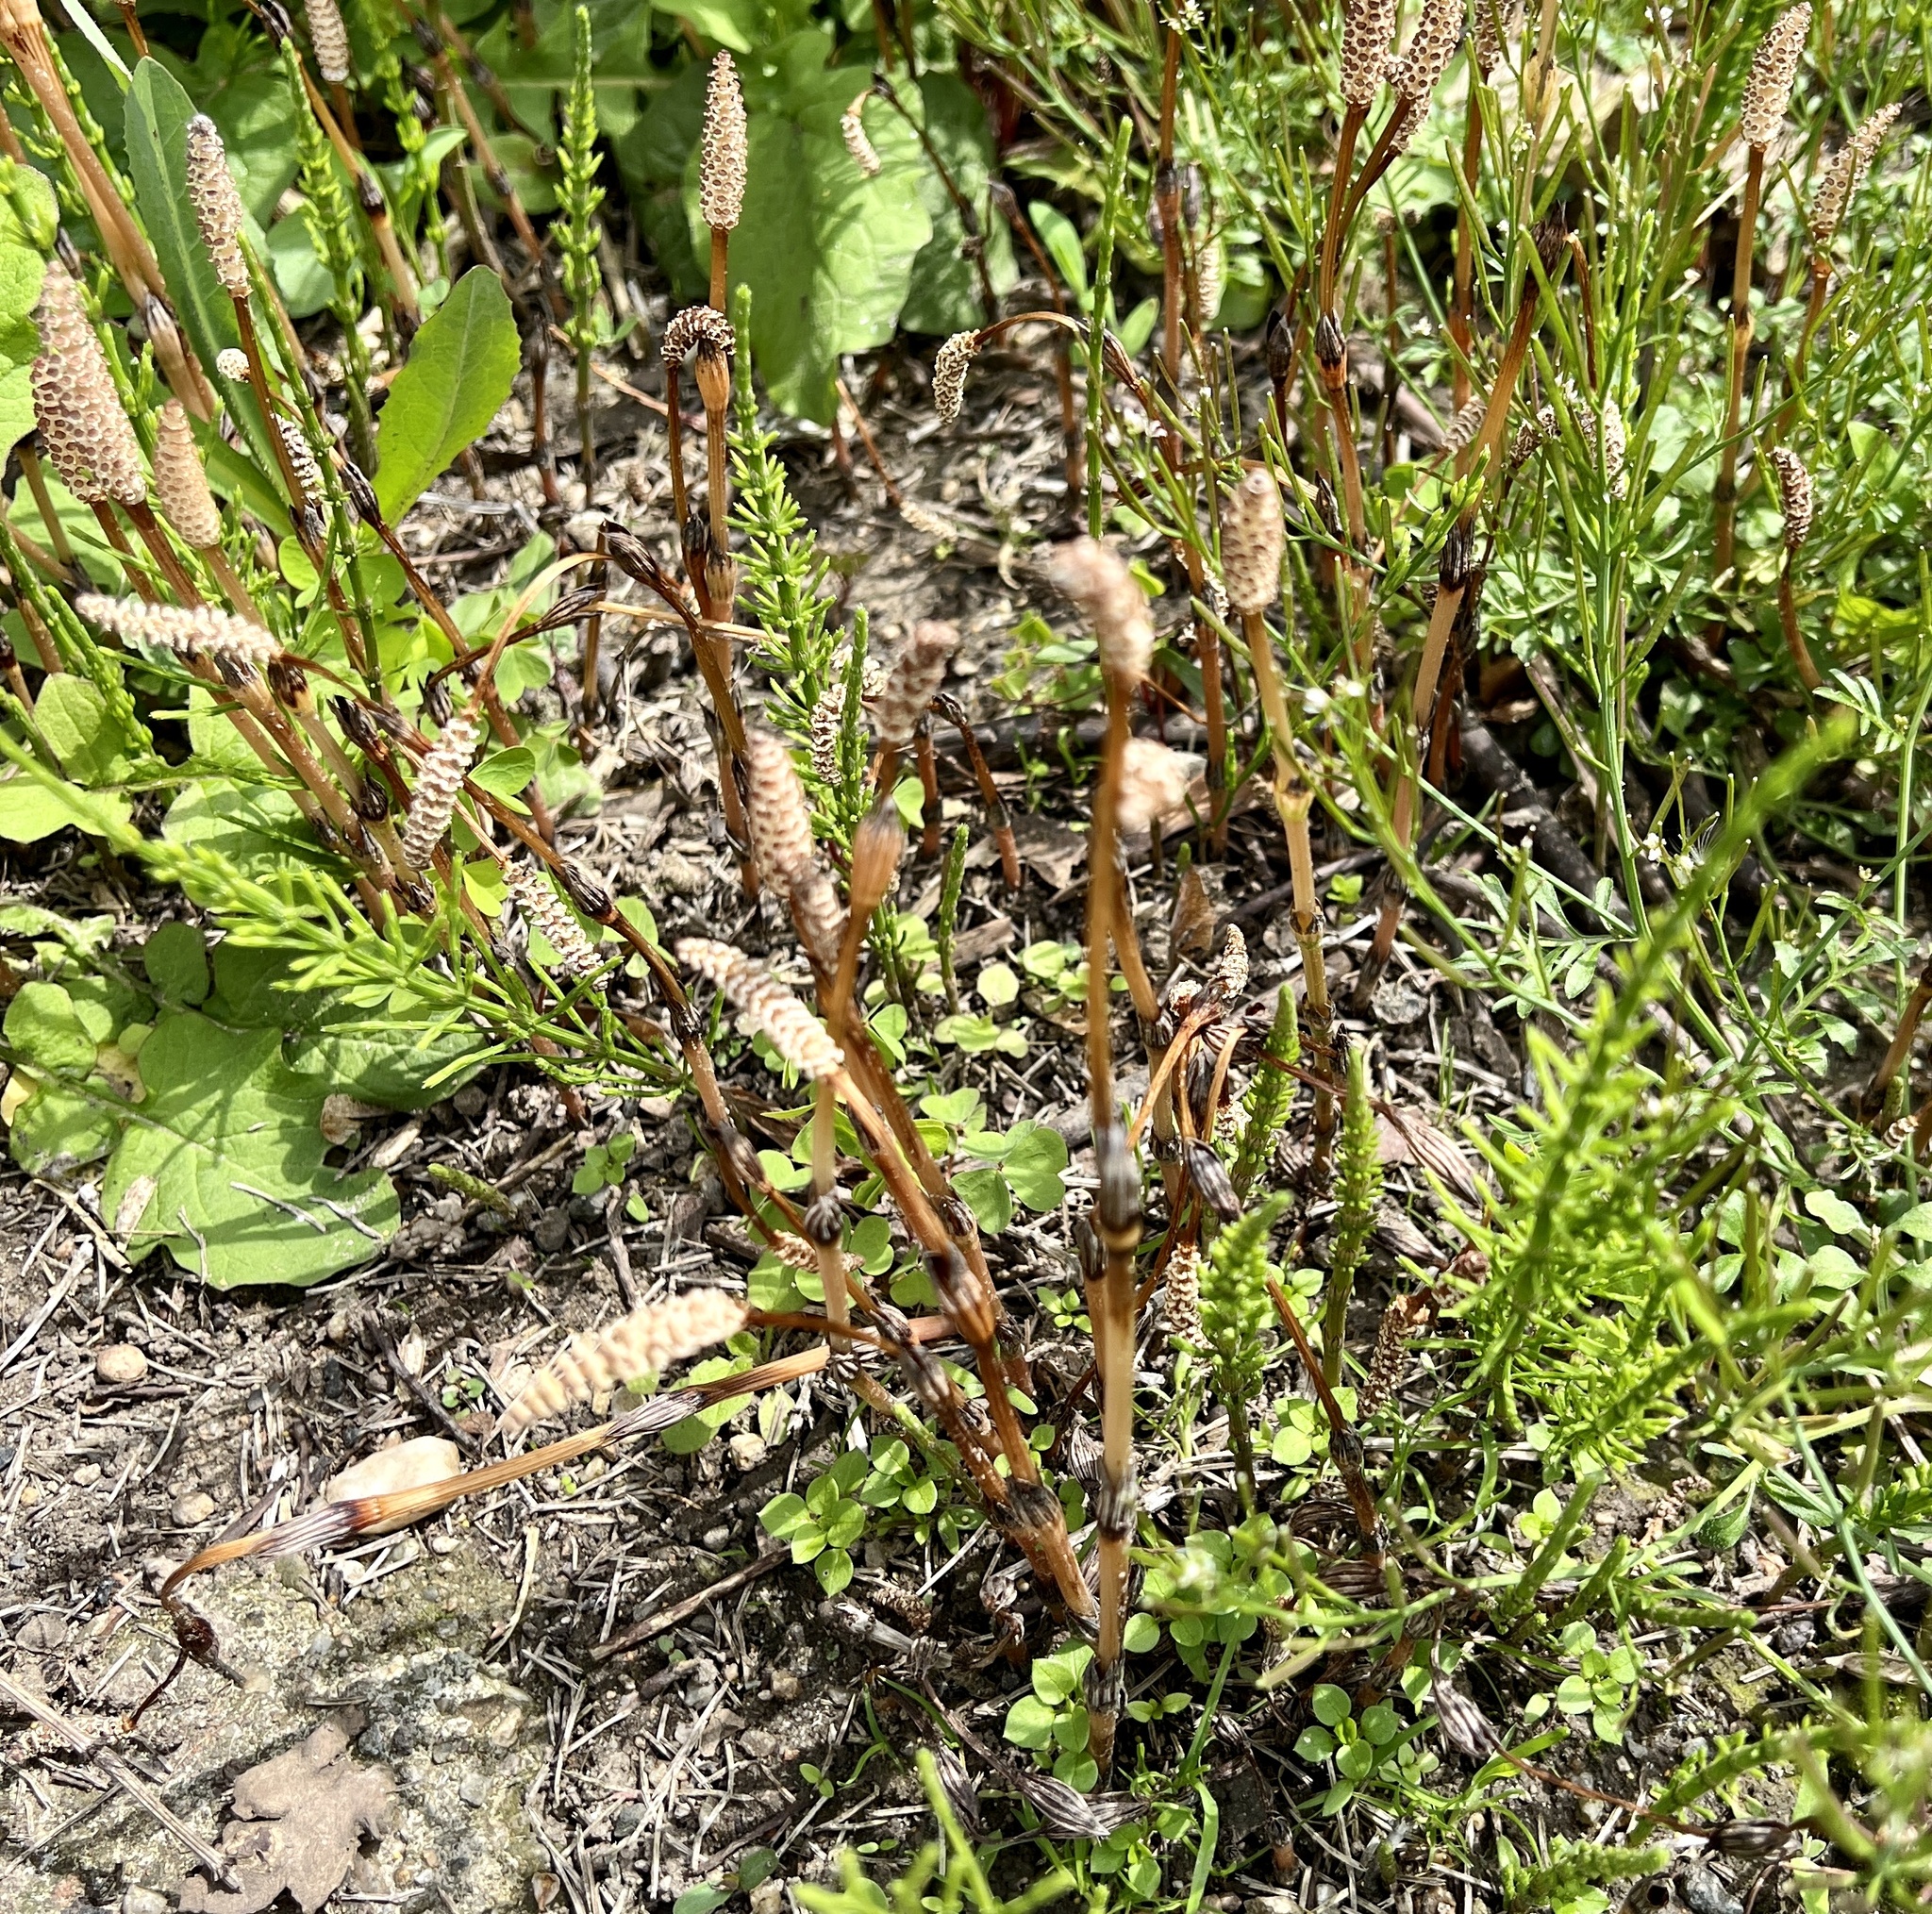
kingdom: Plantae
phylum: Tracheophyta
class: Polypodiopsida
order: Equisetales
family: Equisetaceae
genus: Equisetum
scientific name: Equisetum arvense
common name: Field horsetail
